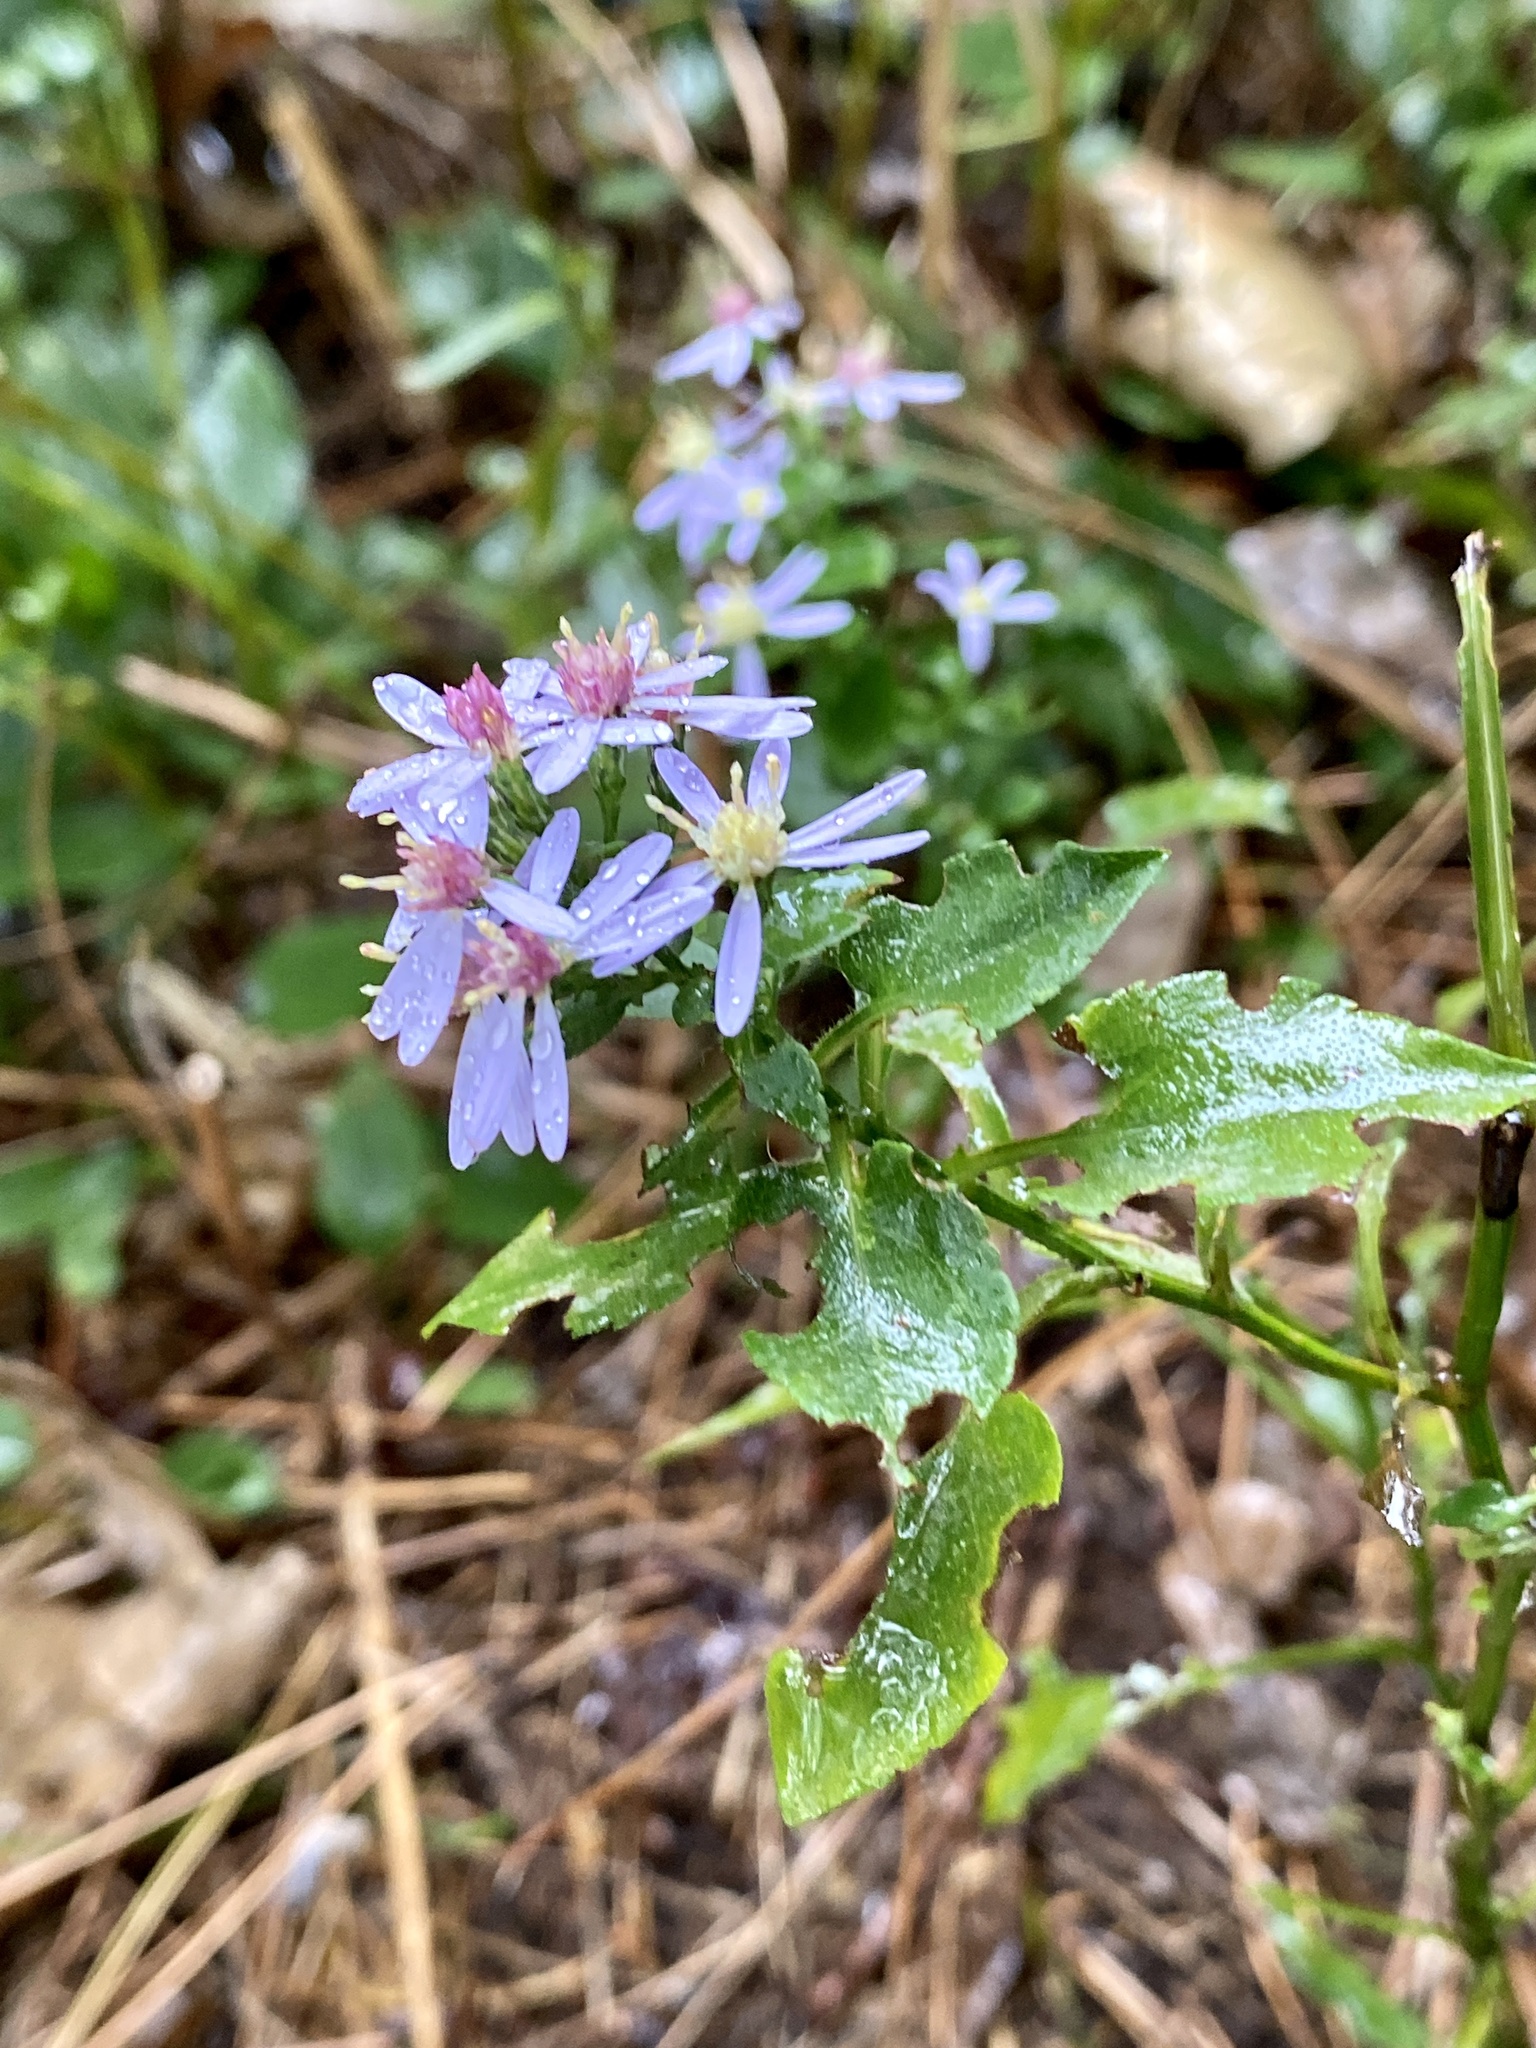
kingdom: Plantae
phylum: Tracheophyta
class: Magnoliopsida
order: Asterales
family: Asteraceae
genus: Symphyotrichum
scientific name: Symphyotrichum cordifolium
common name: Beeweed
